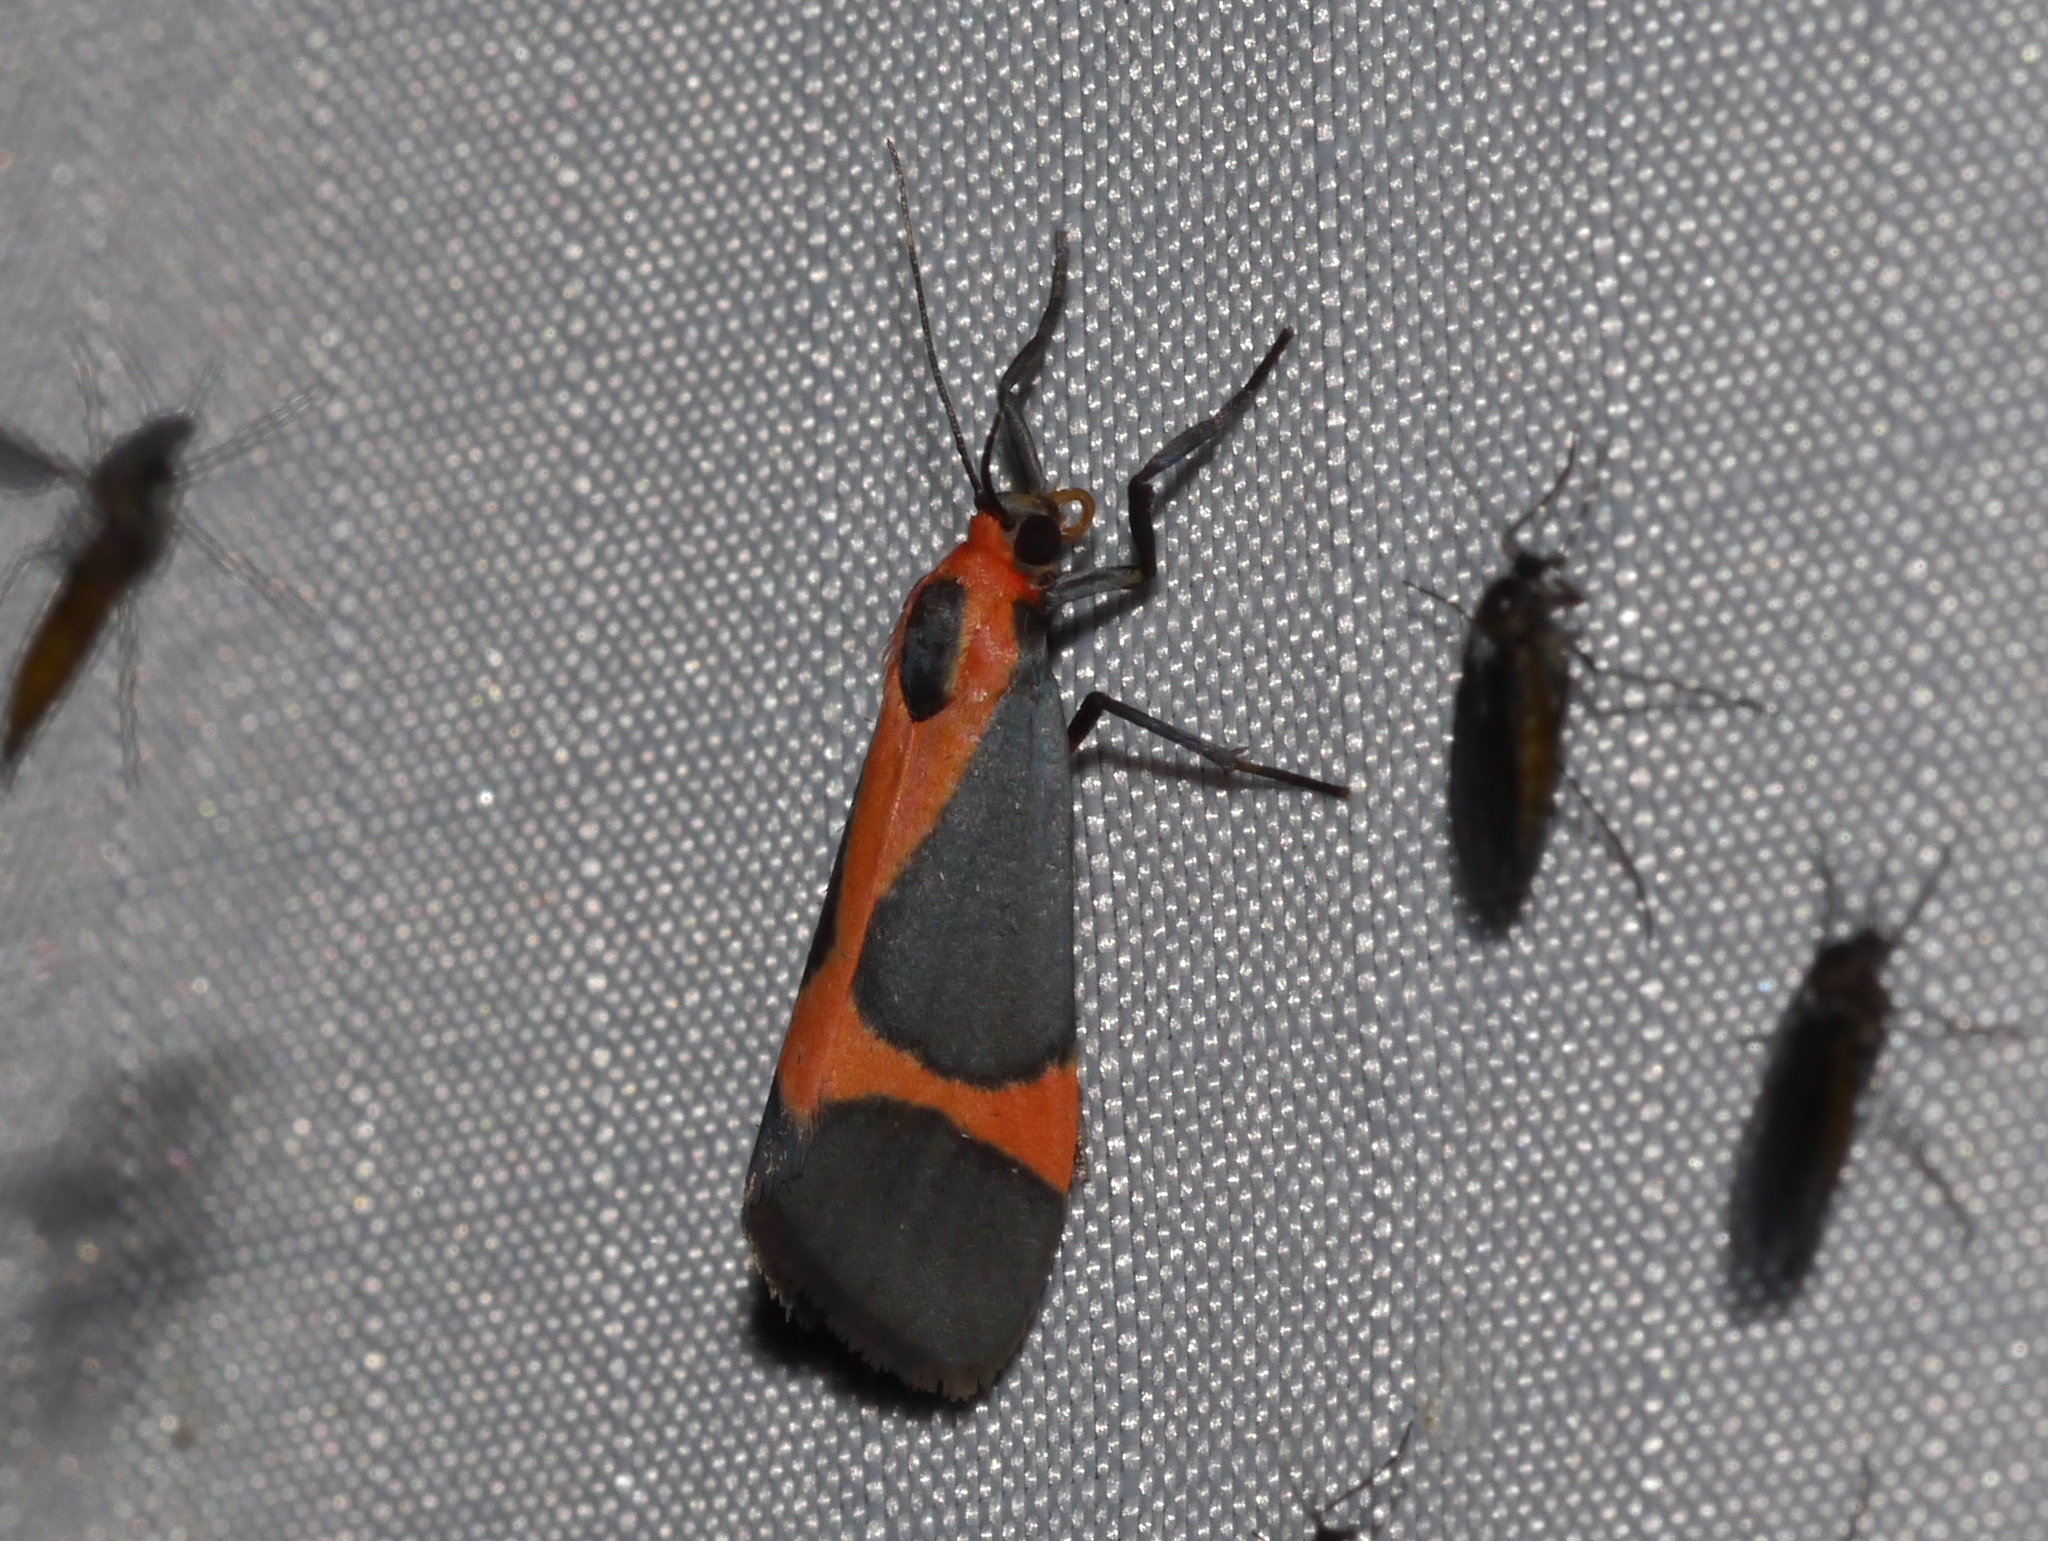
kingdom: Animalia
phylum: Arthropoda
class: Insecta
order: Lepidoptera
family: Erebidae
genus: Cisthene
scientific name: Cisthene martini
